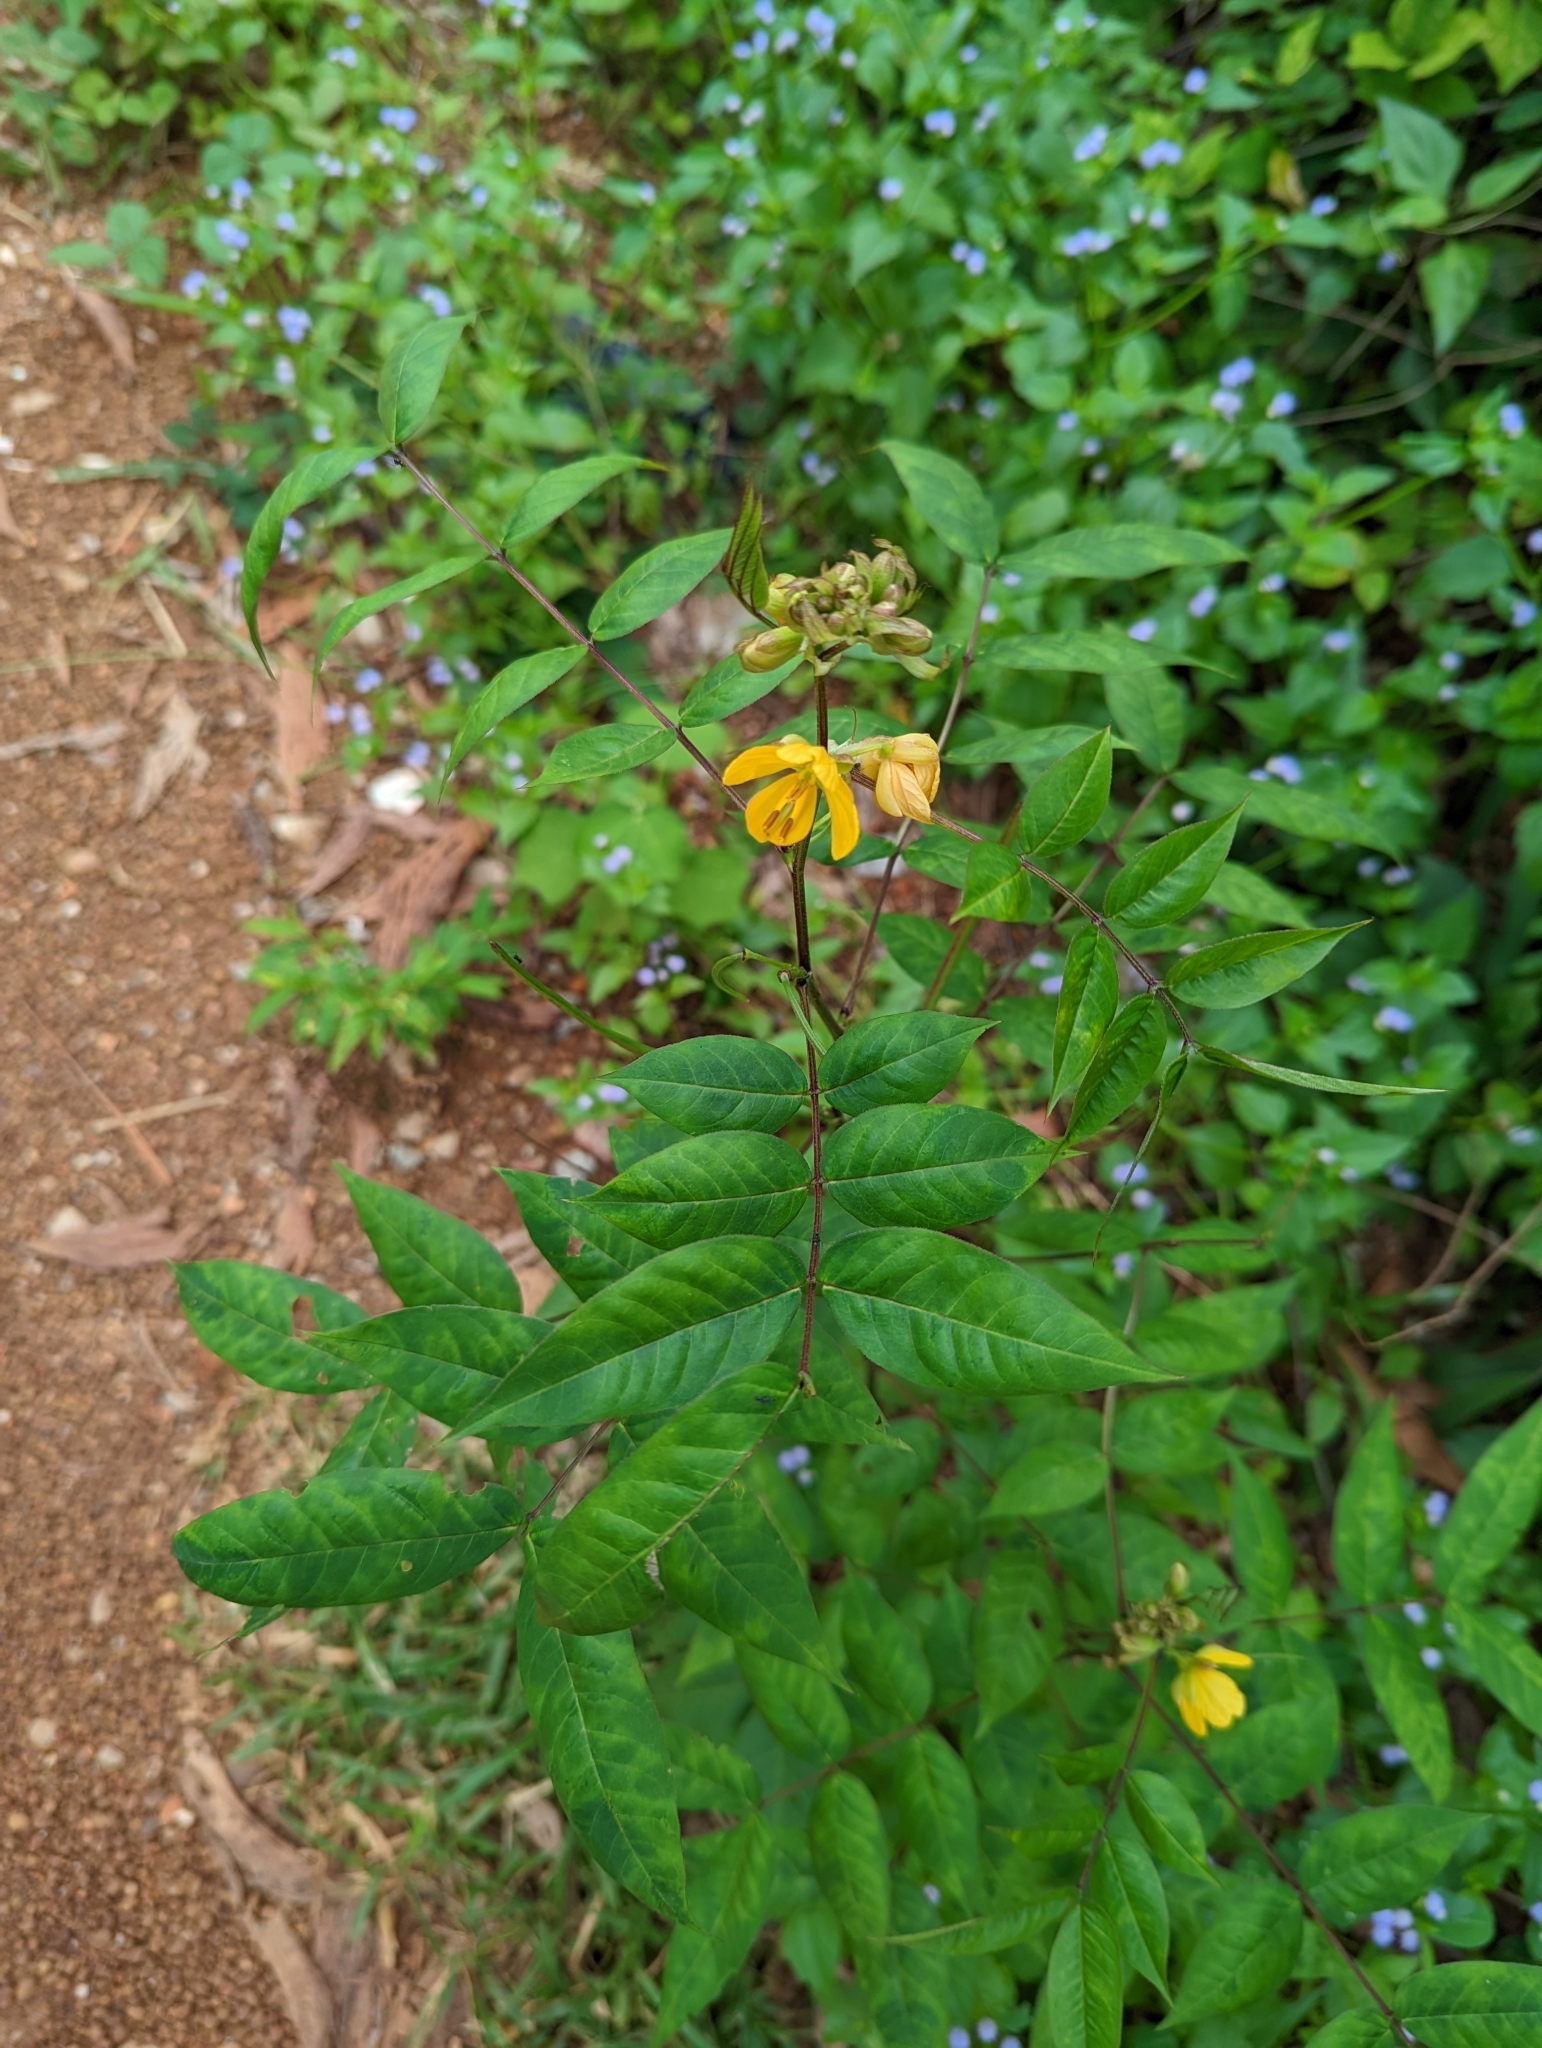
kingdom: Plantae
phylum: Tracheophyta
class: Magnoliopsida
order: Fabales
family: Fabaceae
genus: Senna
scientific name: Senna occidentalis
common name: Septicweed
